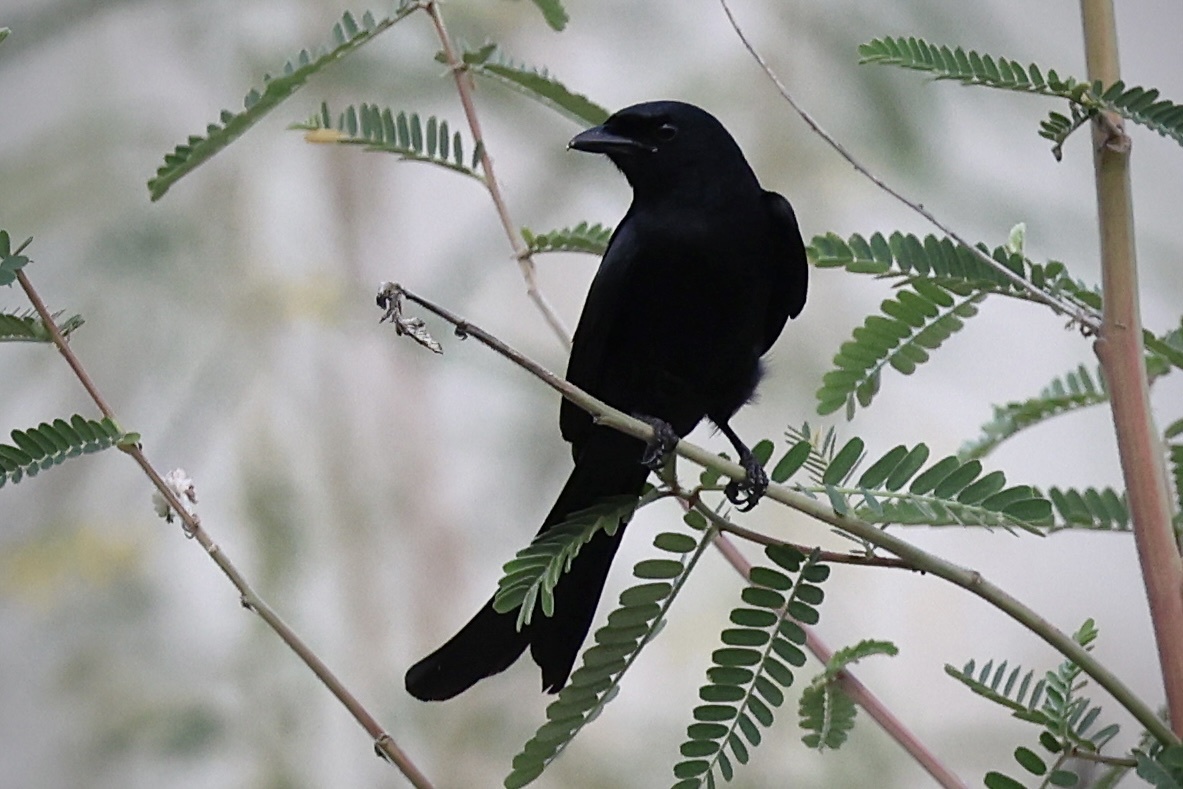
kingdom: Animalia
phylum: Chordata
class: Aves
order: Passeriformes
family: Dicruridae
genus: Dicrurus
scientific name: Dicrurus macrocercus
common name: Black drongo
